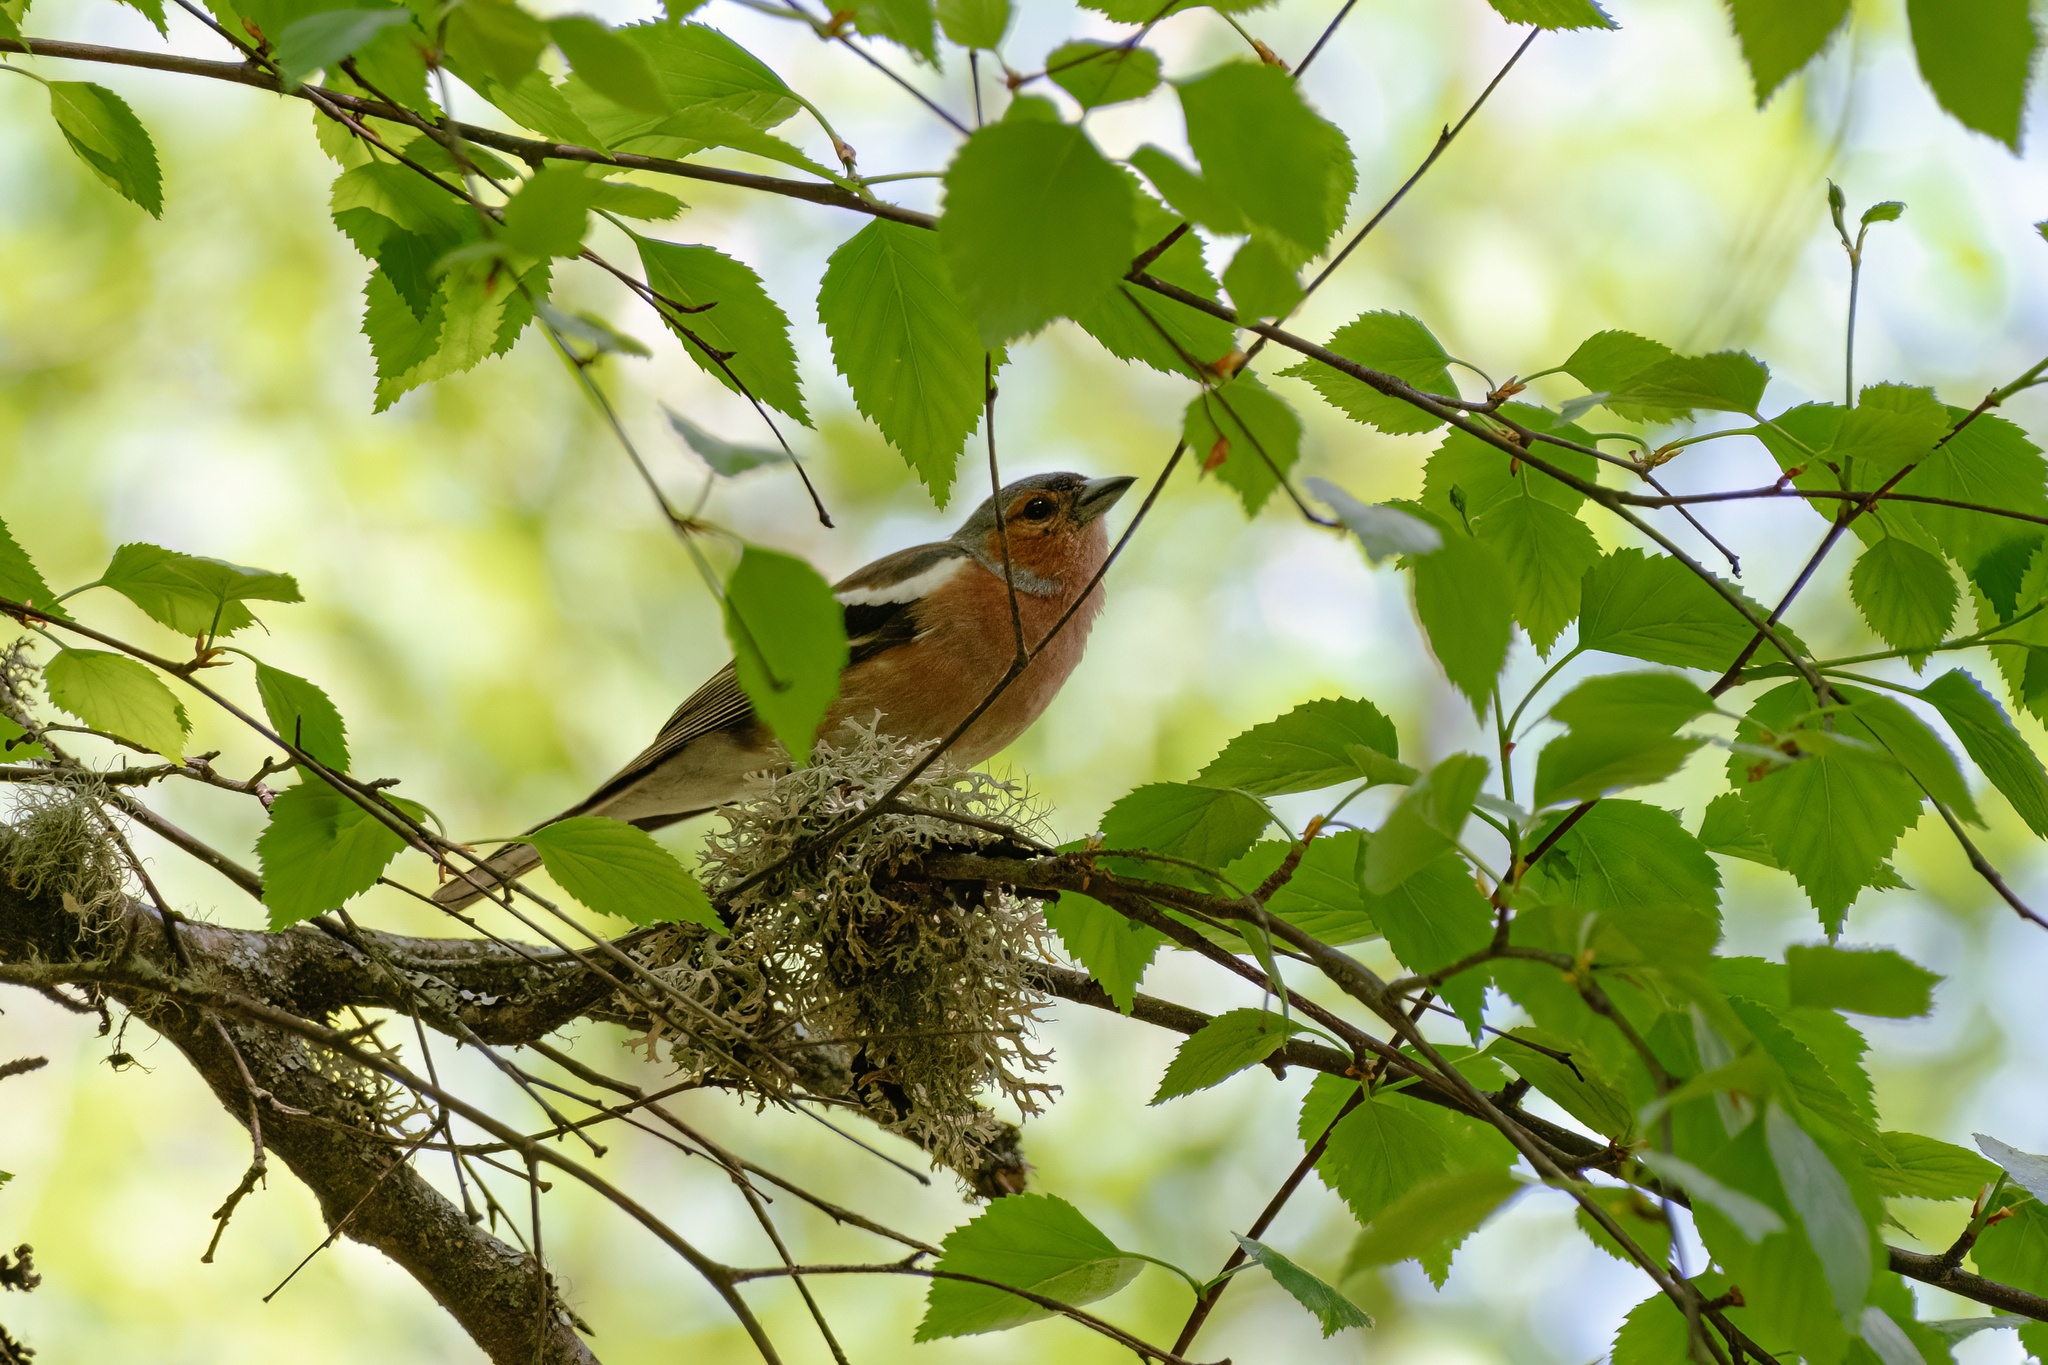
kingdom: Animalia
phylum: Chordata
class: Aves
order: Passeriformes
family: Fringillidae
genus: Fringilla
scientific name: Fringilla coelebs
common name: Common chaffinch
